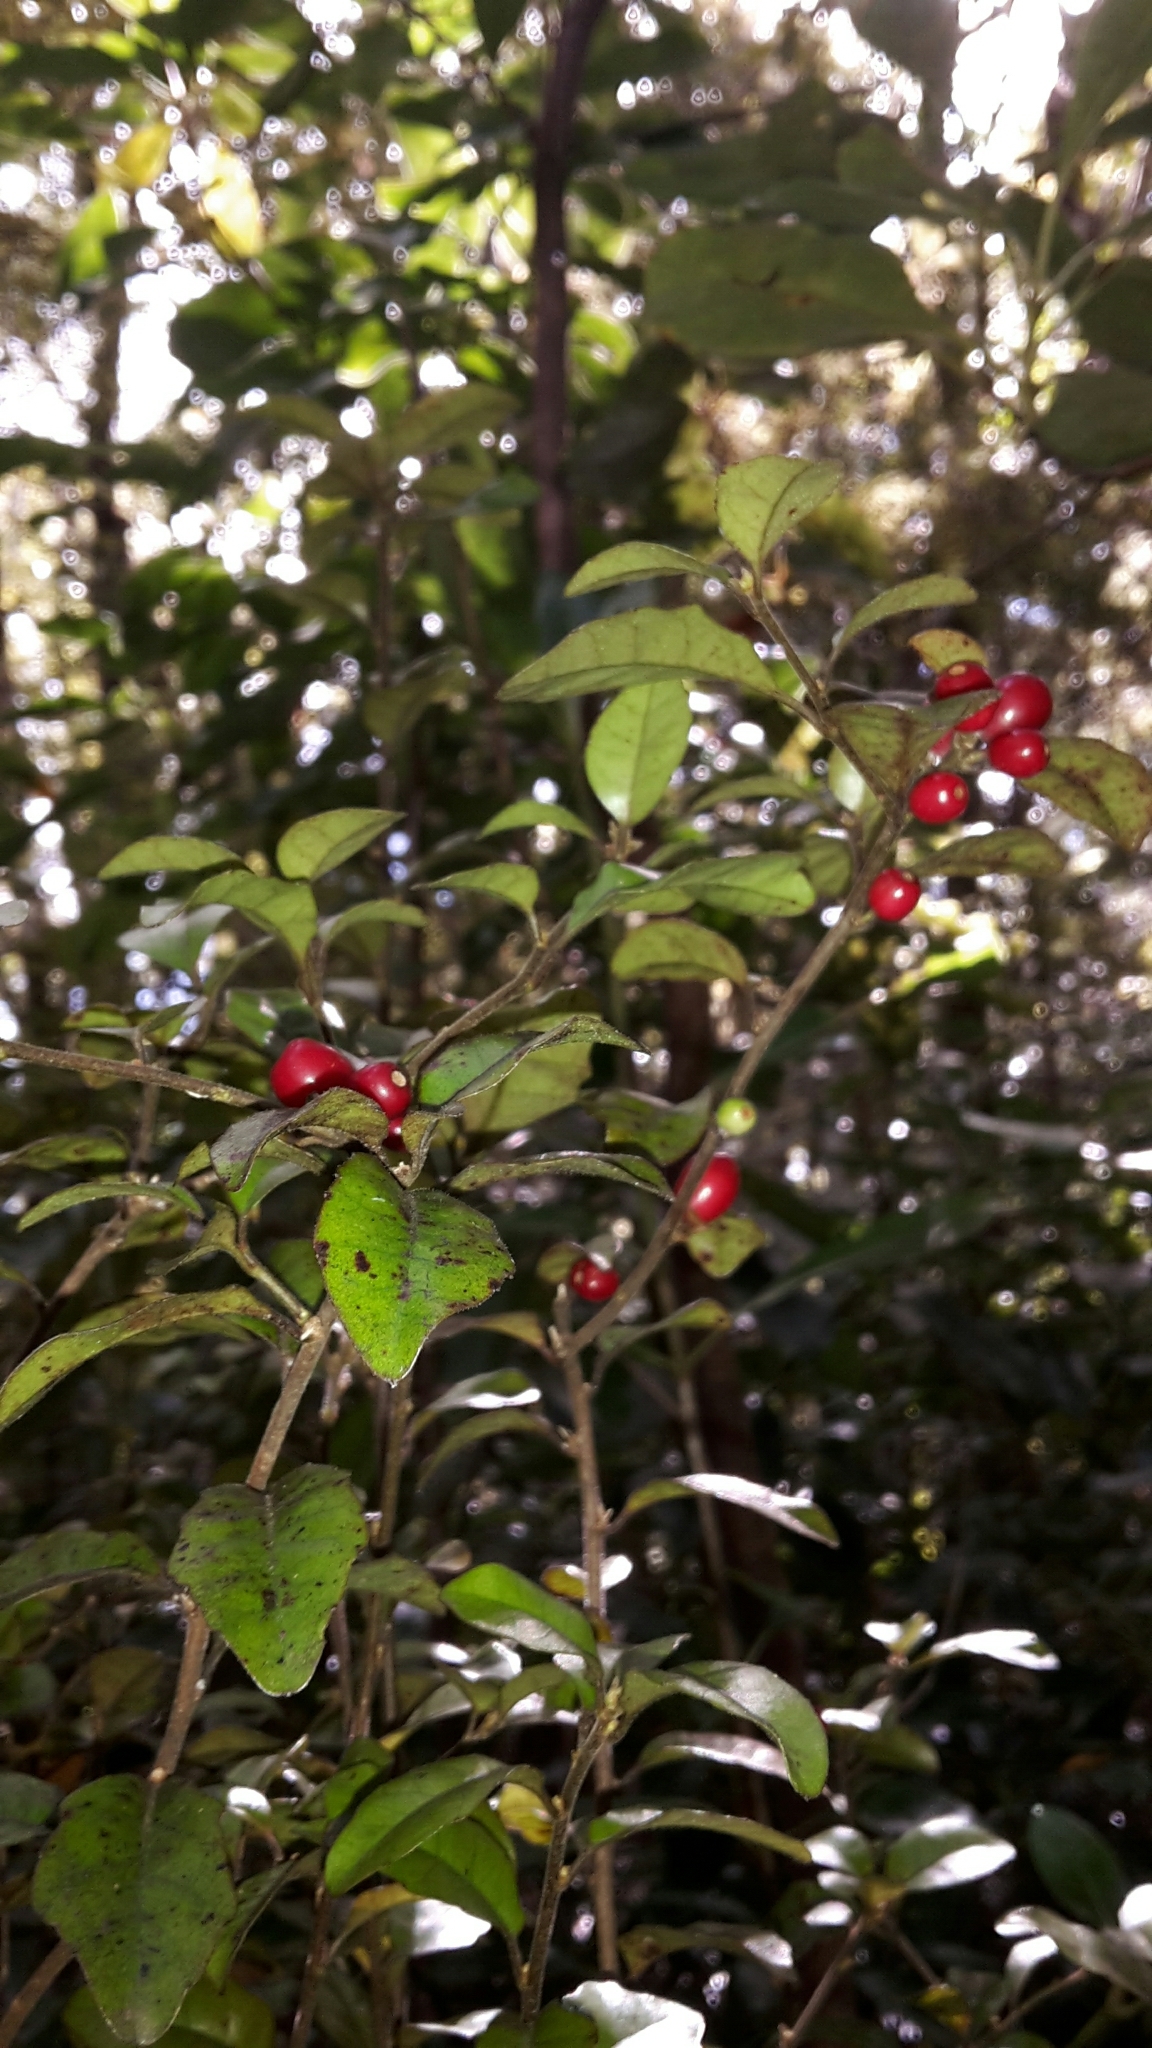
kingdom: Plantae
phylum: Tracheophyta
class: Magnoliopsida
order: Asterales
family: Alseuosmiaceae
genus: Alseuosmia
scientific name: Alseuosmia banksii
